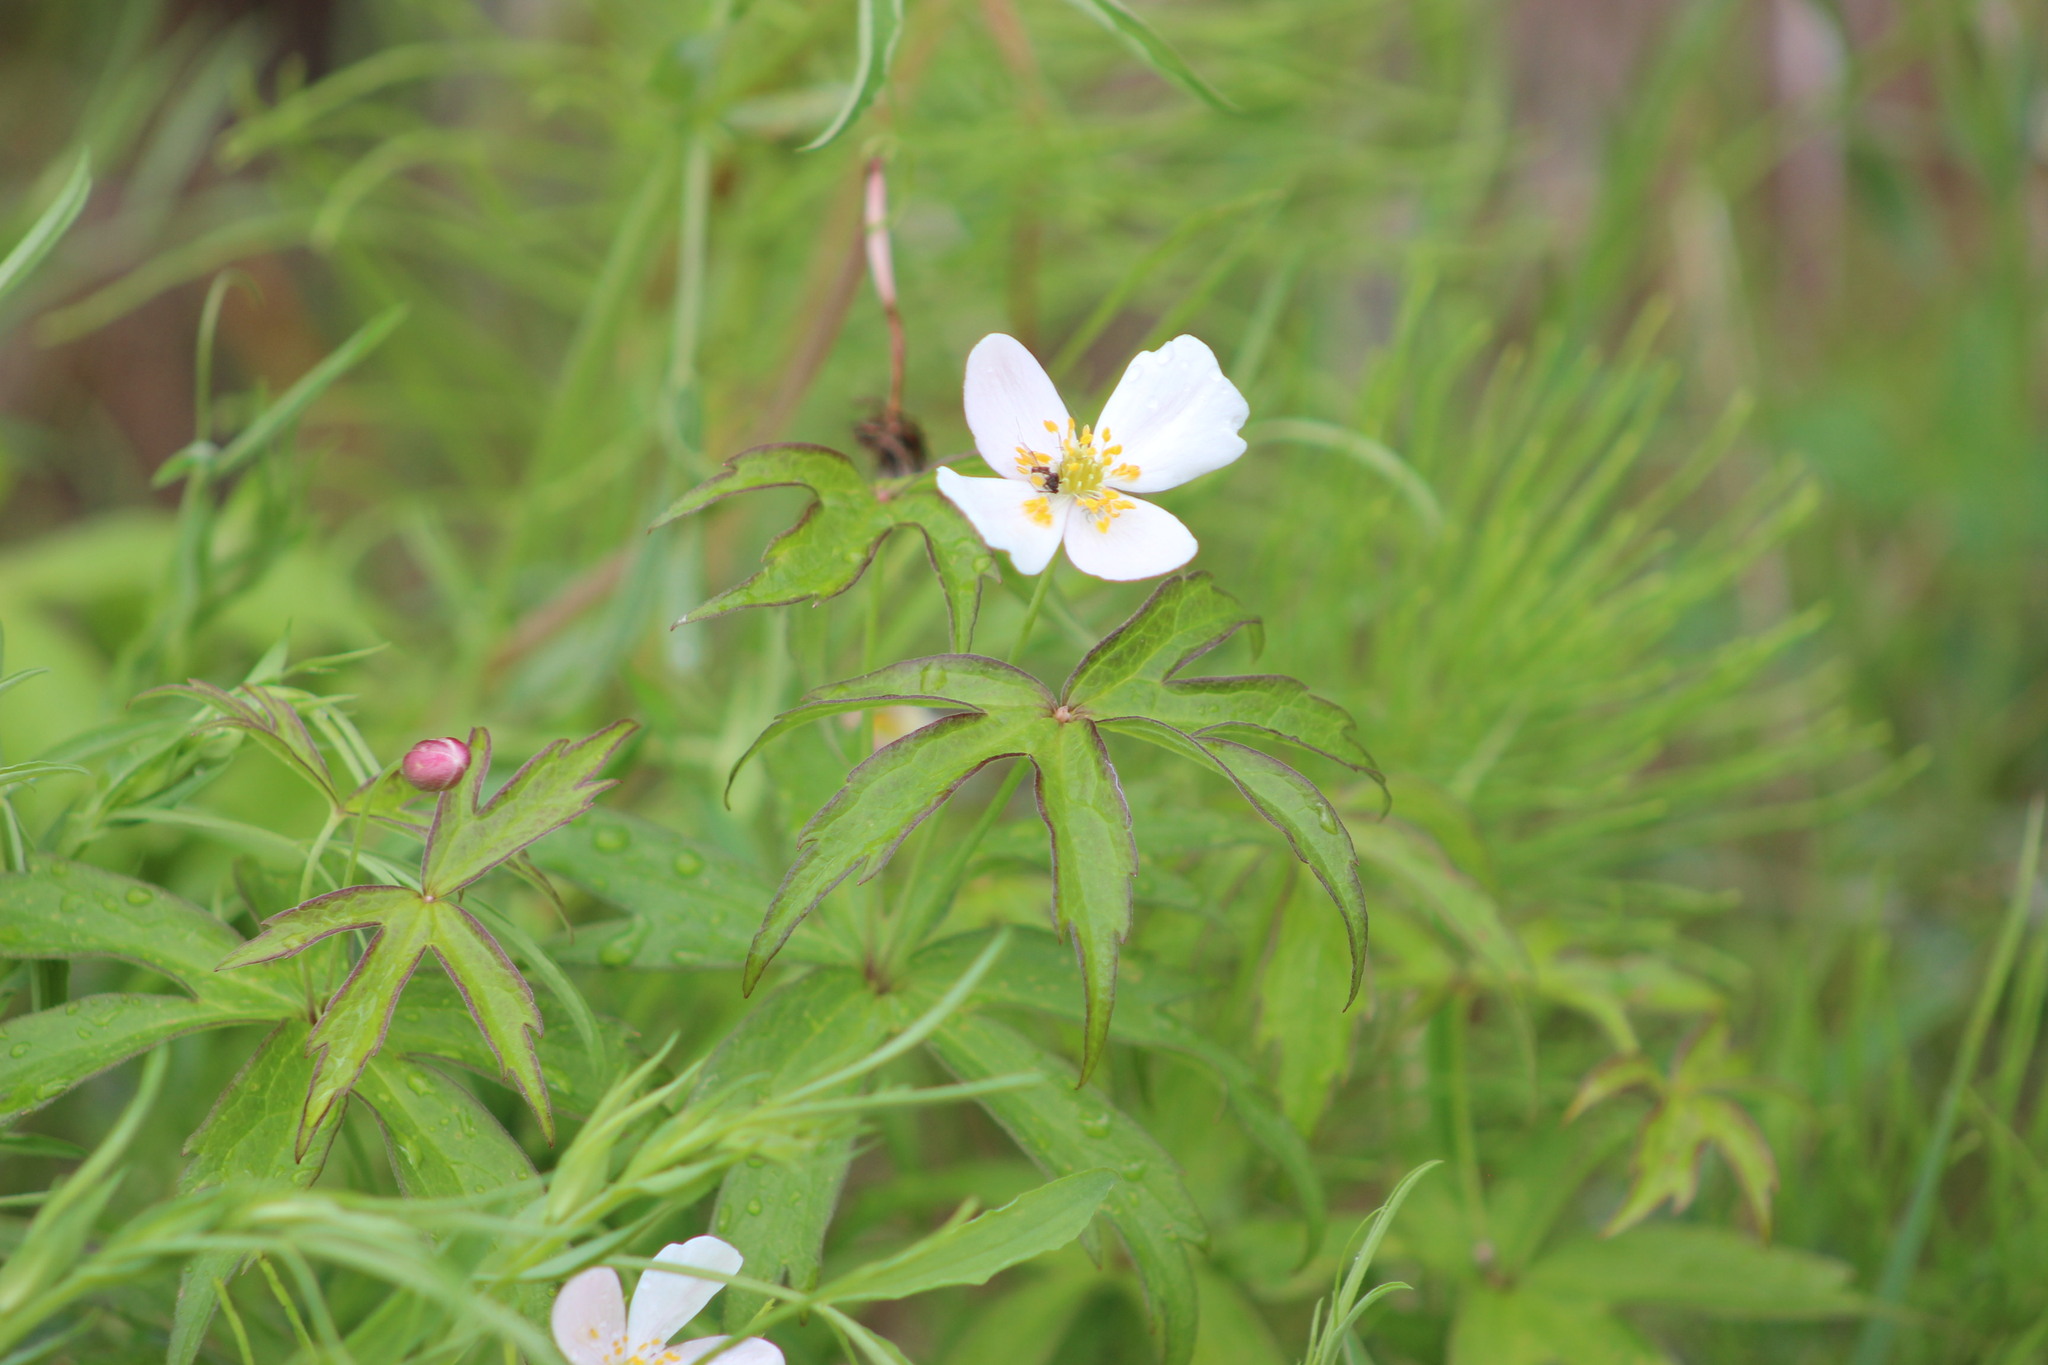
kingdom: Plantae
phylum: Tracheophyta
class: Magnoliopsida
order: Ranunculales
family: Ranunculaceae
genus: Anemonastrum
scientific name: Anemonastrum dichotomum
